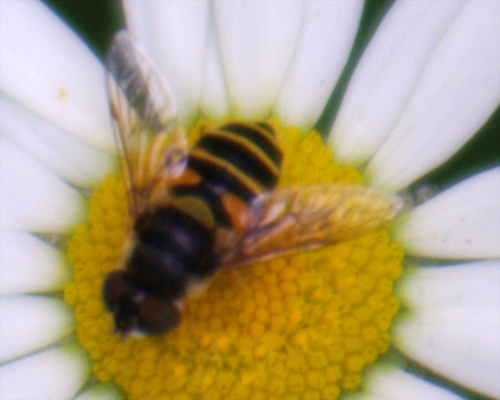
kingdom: Animalia
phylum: Arthropoda
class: Insecta
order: Diptera
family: Syrphidae
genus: Eristalis
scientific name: Eristalis transversa
